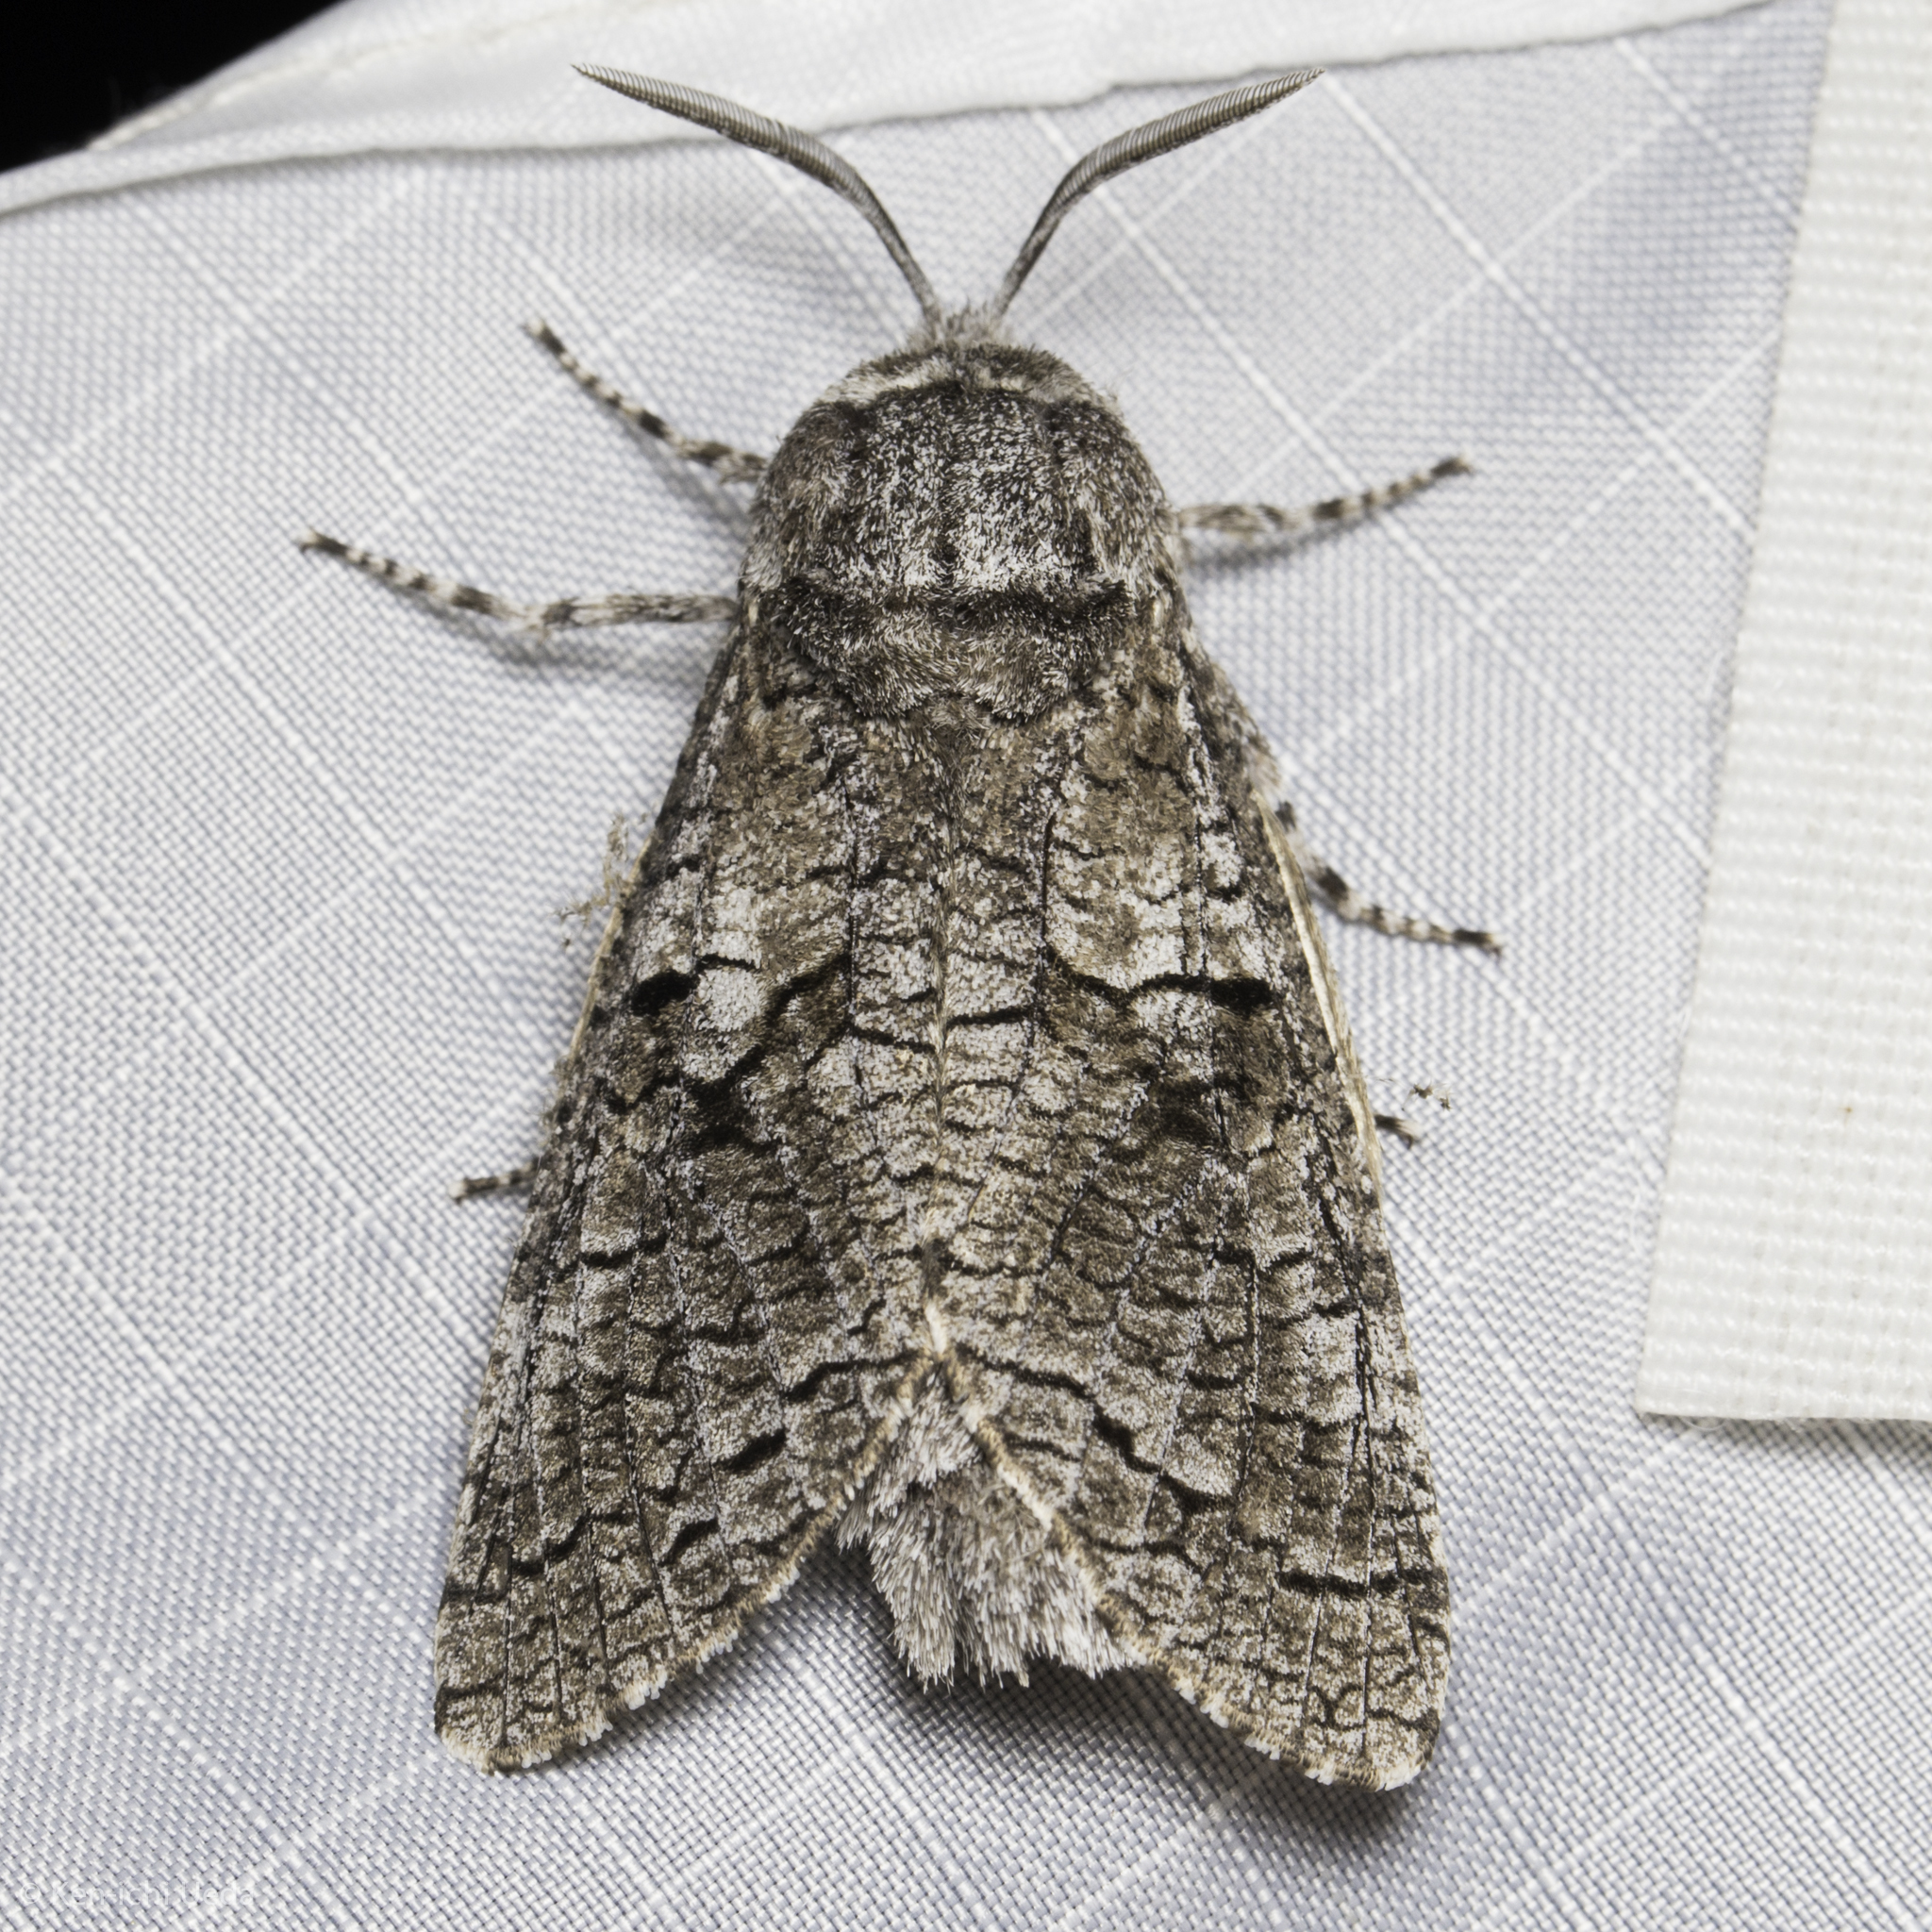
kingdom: Animalia
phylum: Arthropoda
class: Insecta
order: Lepidoptera
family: Cossidae
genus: Acossus
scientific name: Acossus populi
